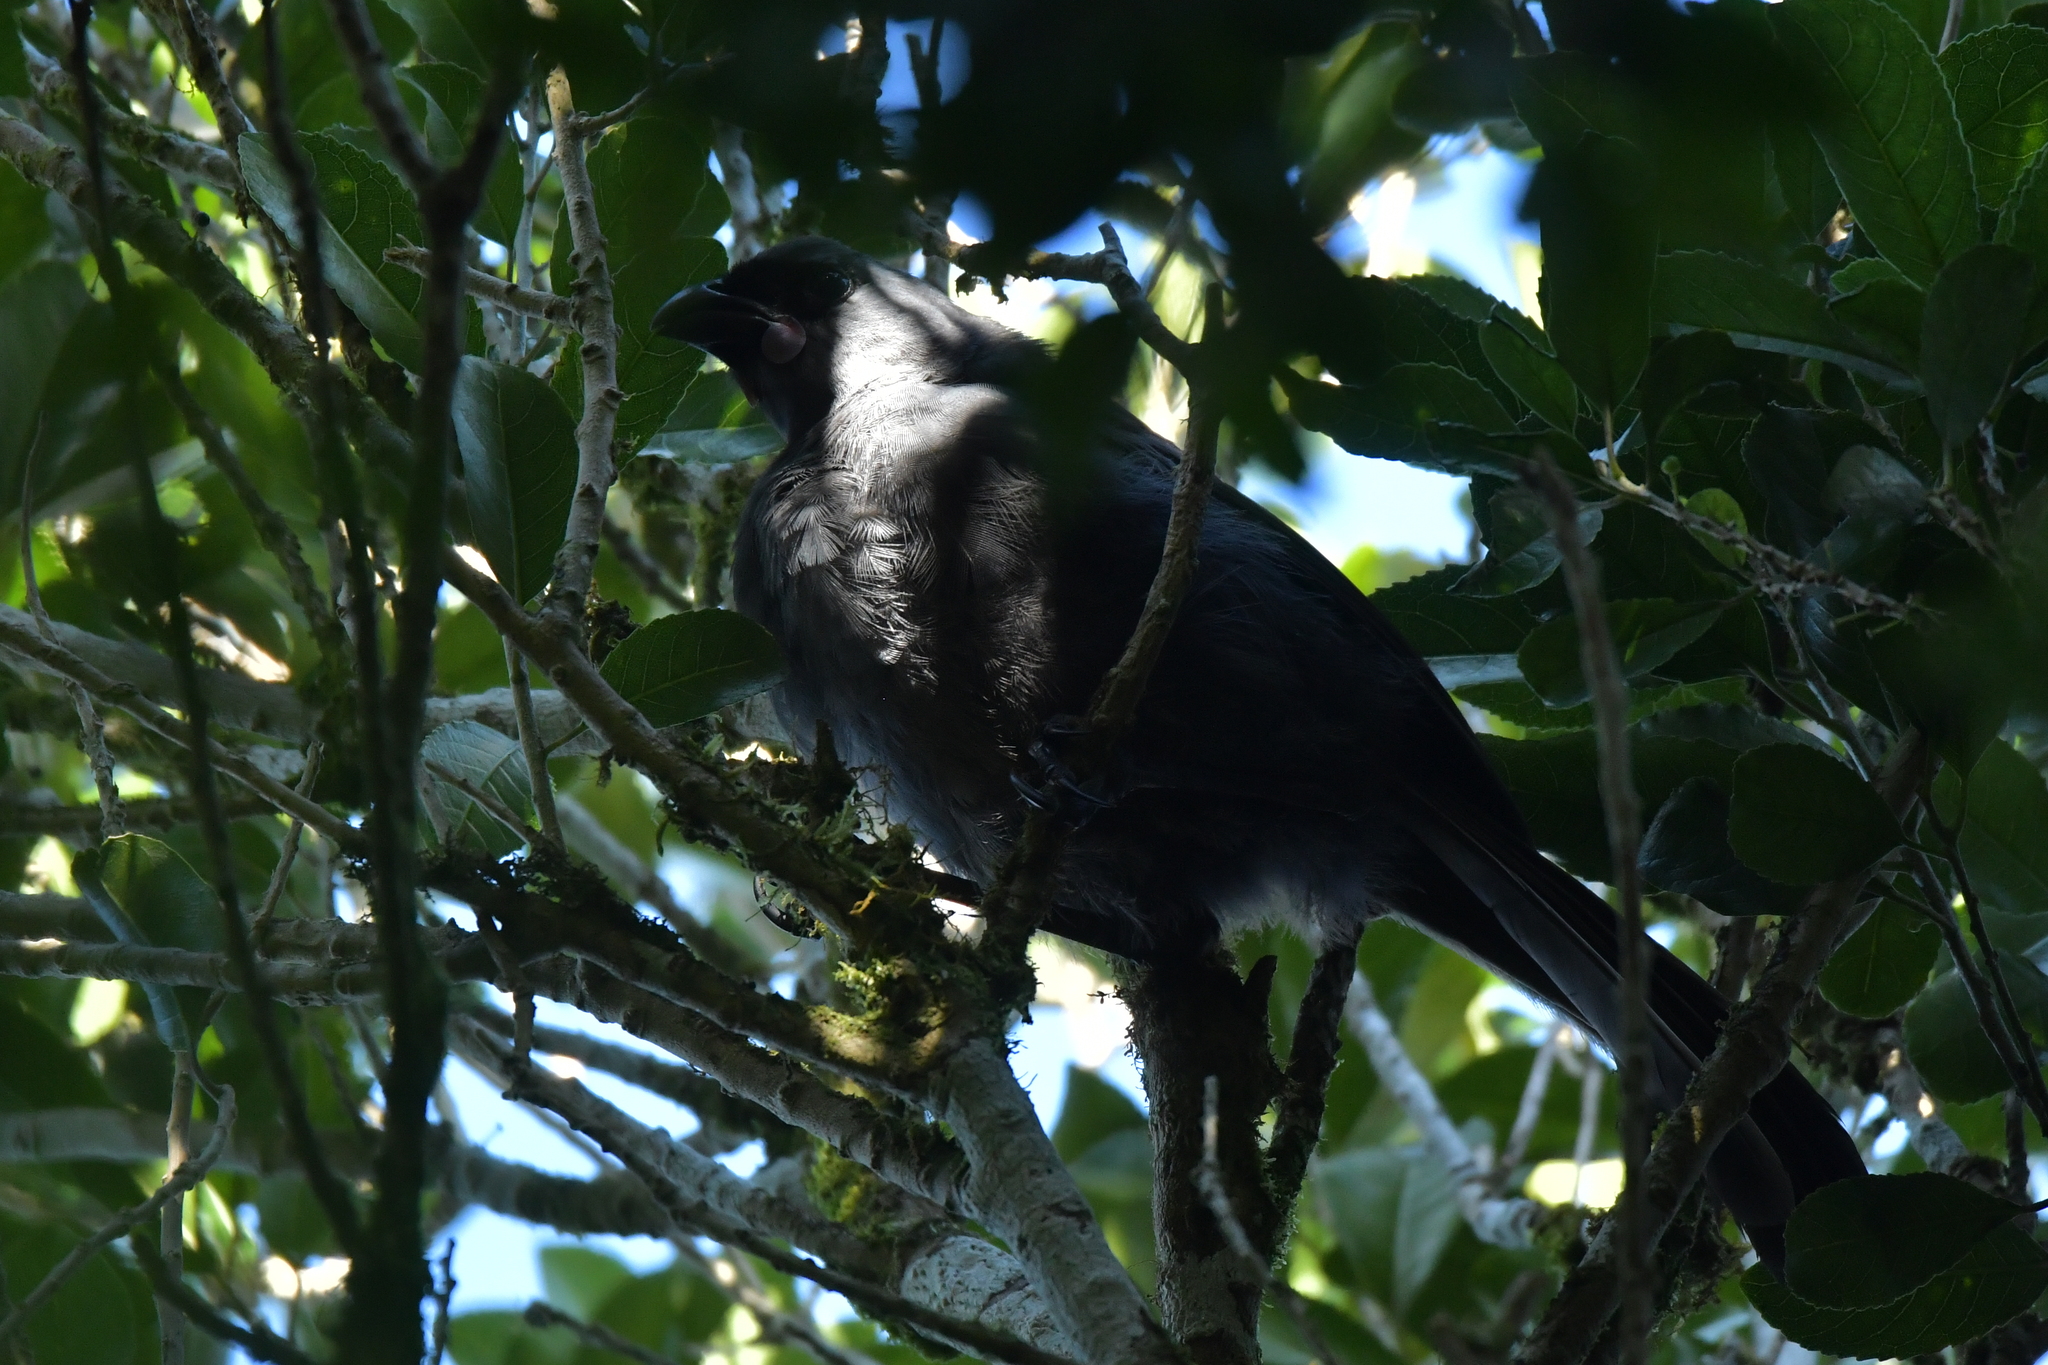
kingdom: Animalia
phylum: Chordata
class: Aves
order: Passeriformes
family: Callaeatidae
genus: Callaeas
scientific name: Callaeas cinereus
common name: South island kokako
